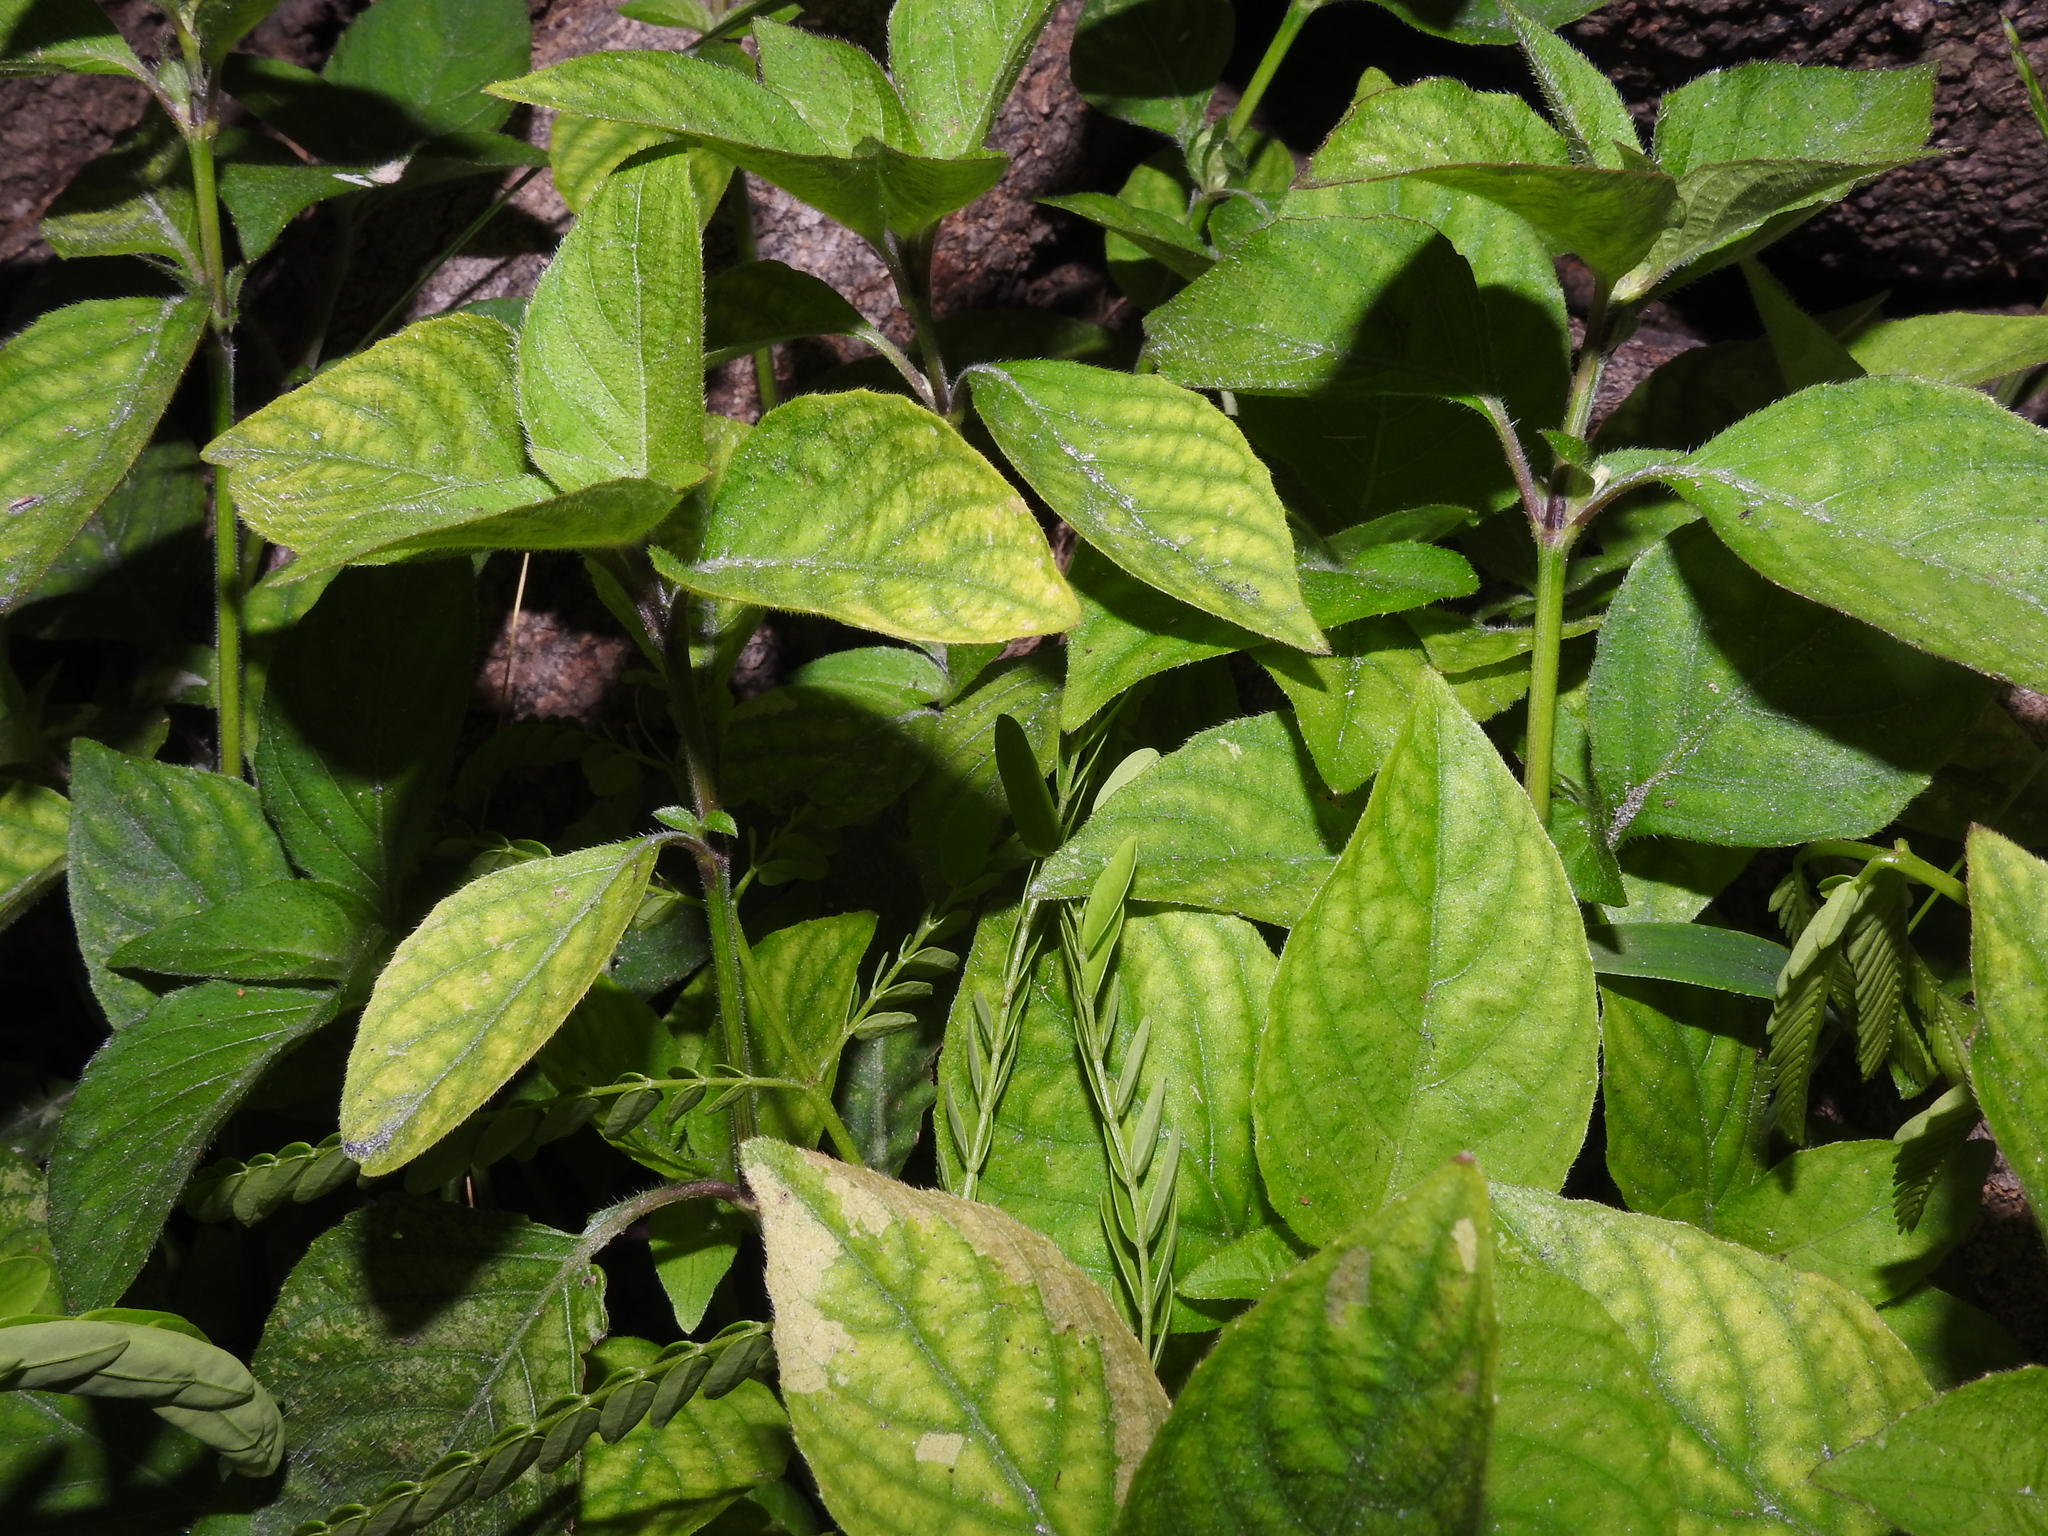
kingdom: Plantae
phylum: Tracheophyta
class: Magnoliopsida
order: Lamiales
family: Acanthaceae
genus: Ruellia
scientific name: Ruellia blechum
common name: Browne's blechum
